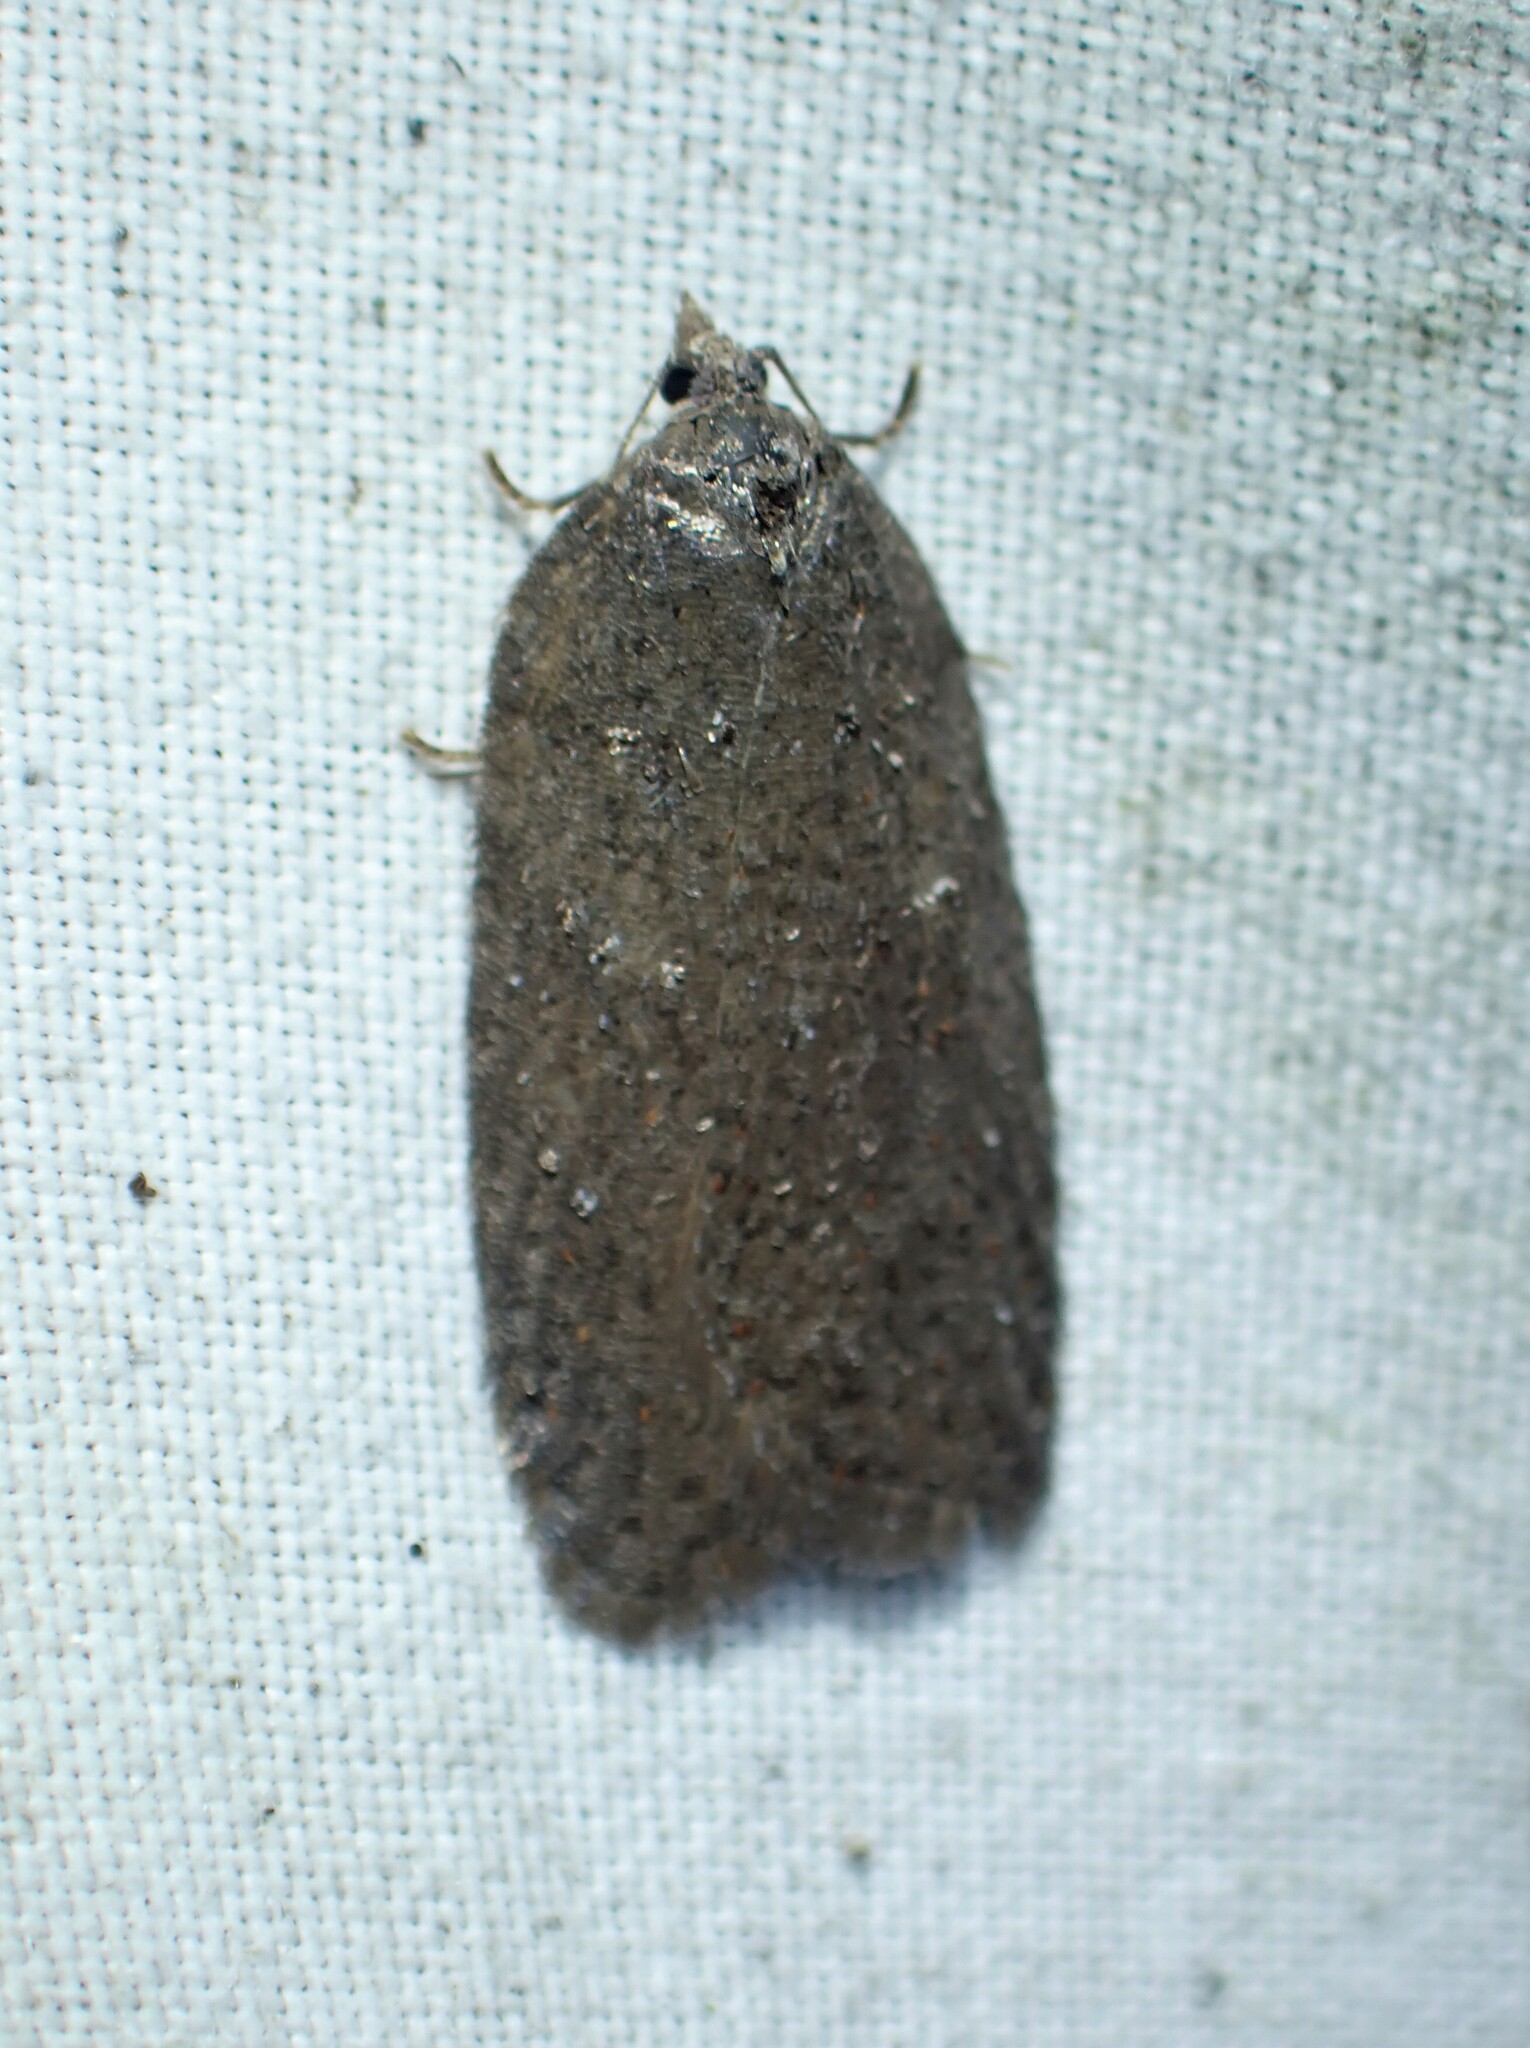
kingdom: Animalia
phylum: Arthropoda
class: Insecta
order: Lepidoptera
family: Tortricidae
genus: Acleris
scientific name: Acleris caliginosana
